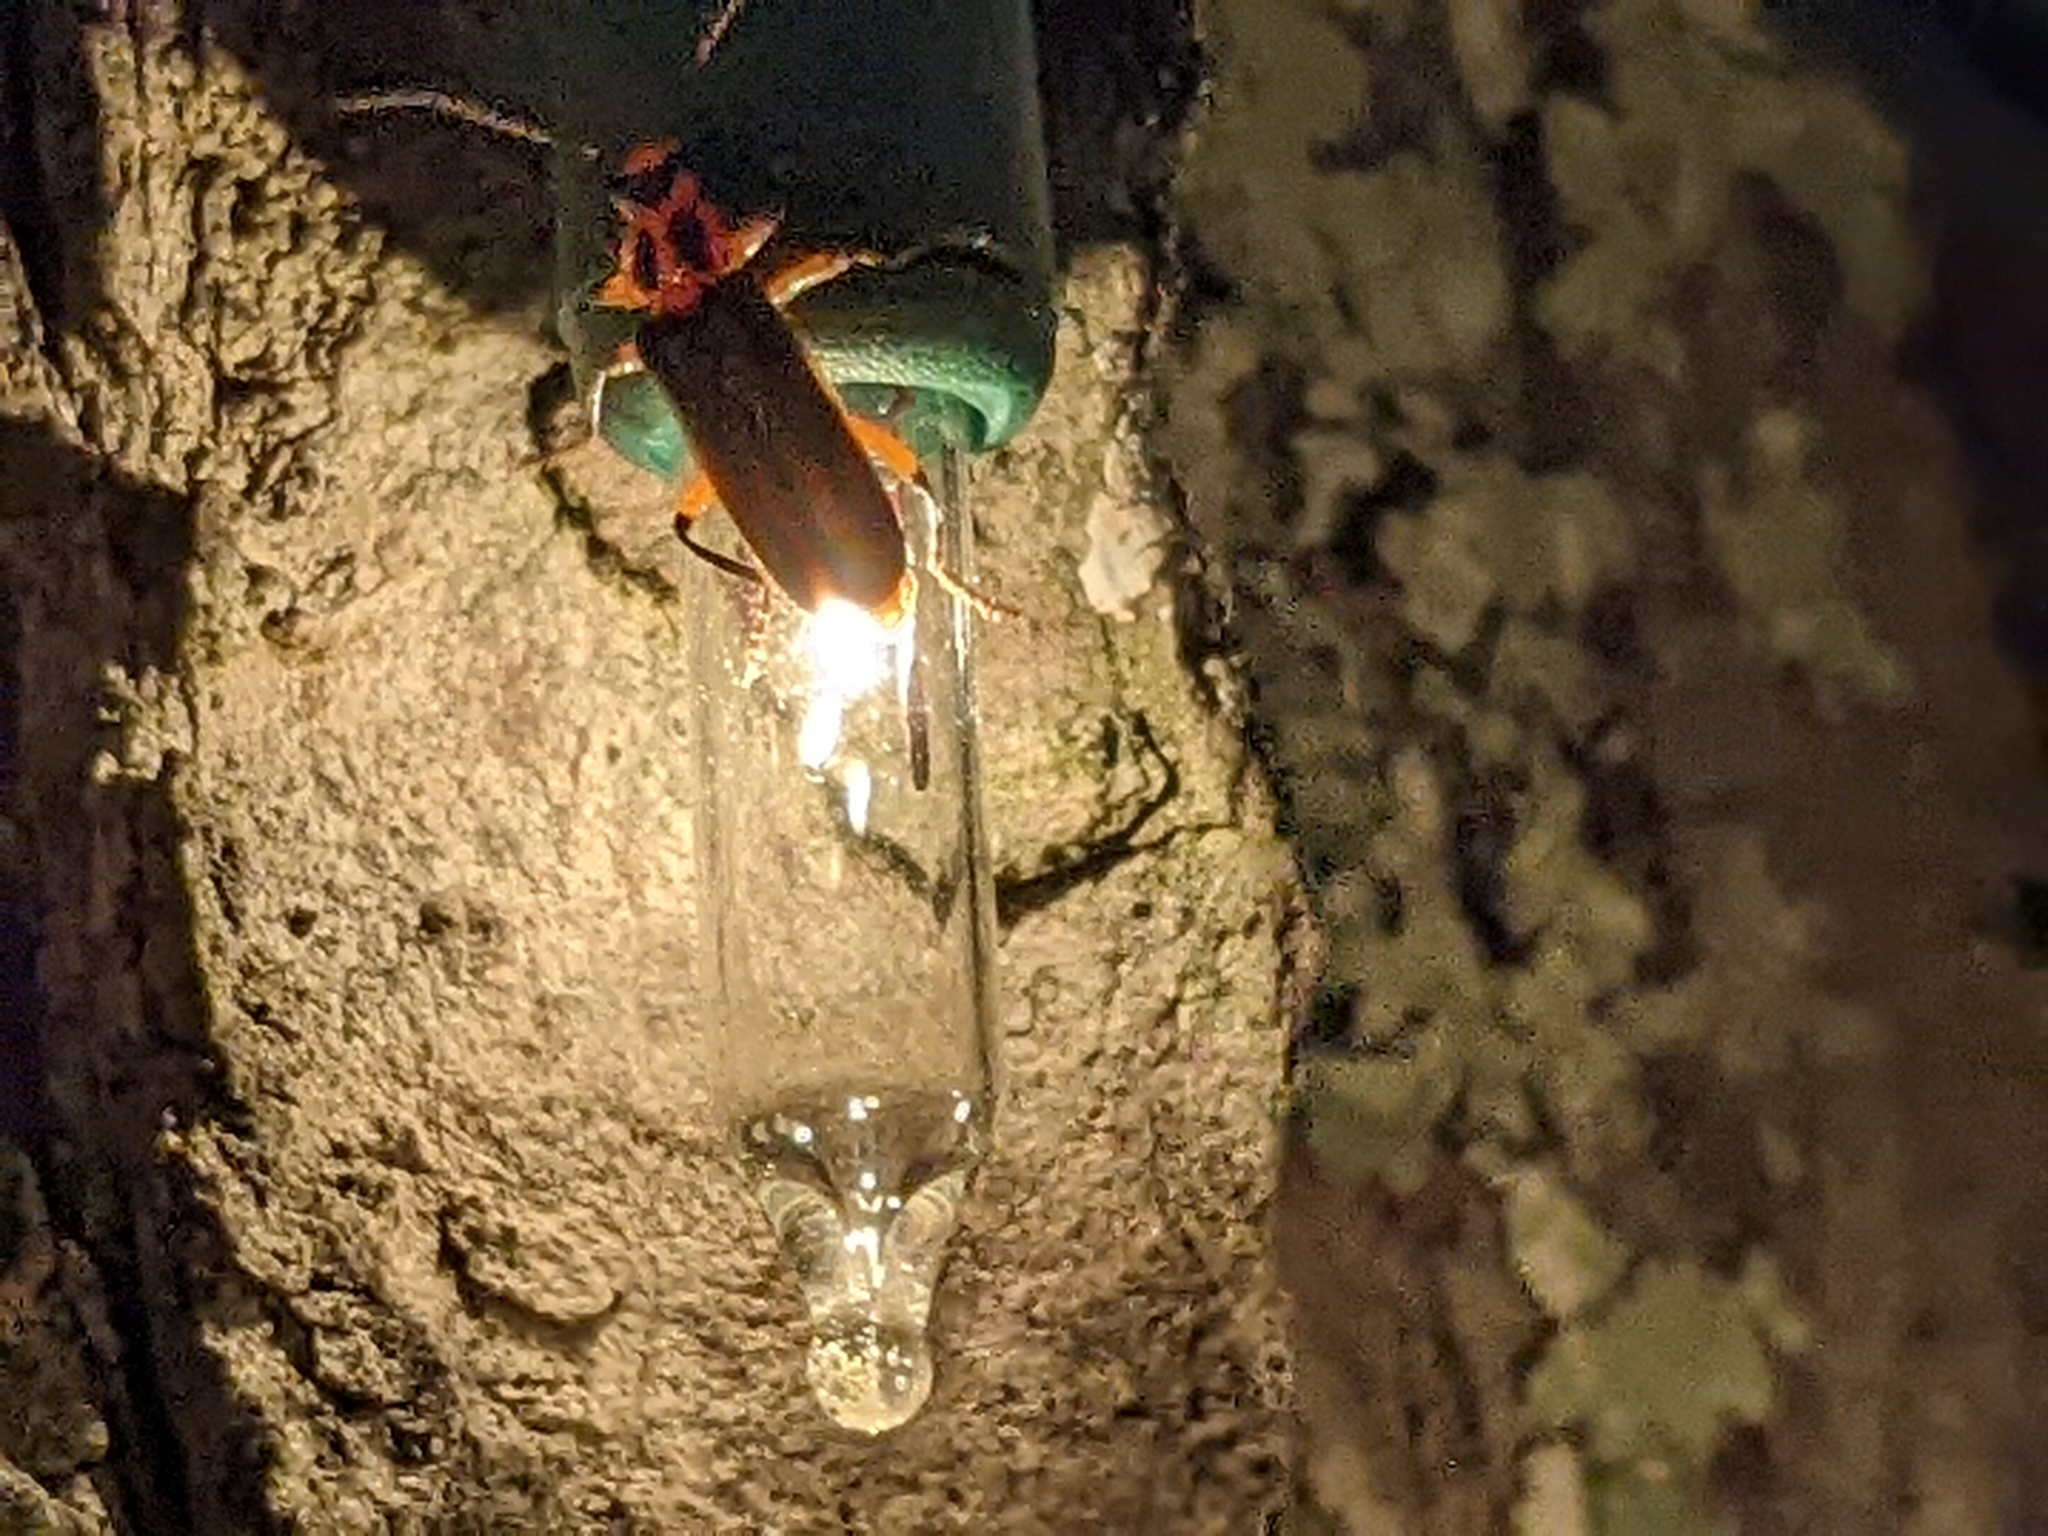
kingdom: Animalia
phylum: Arthropoda
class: Insecta
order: Coleoptera
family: Cantharidae
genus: Atalantycha
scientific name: Atalantycha bilineata
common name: Two-lined leatherwing
